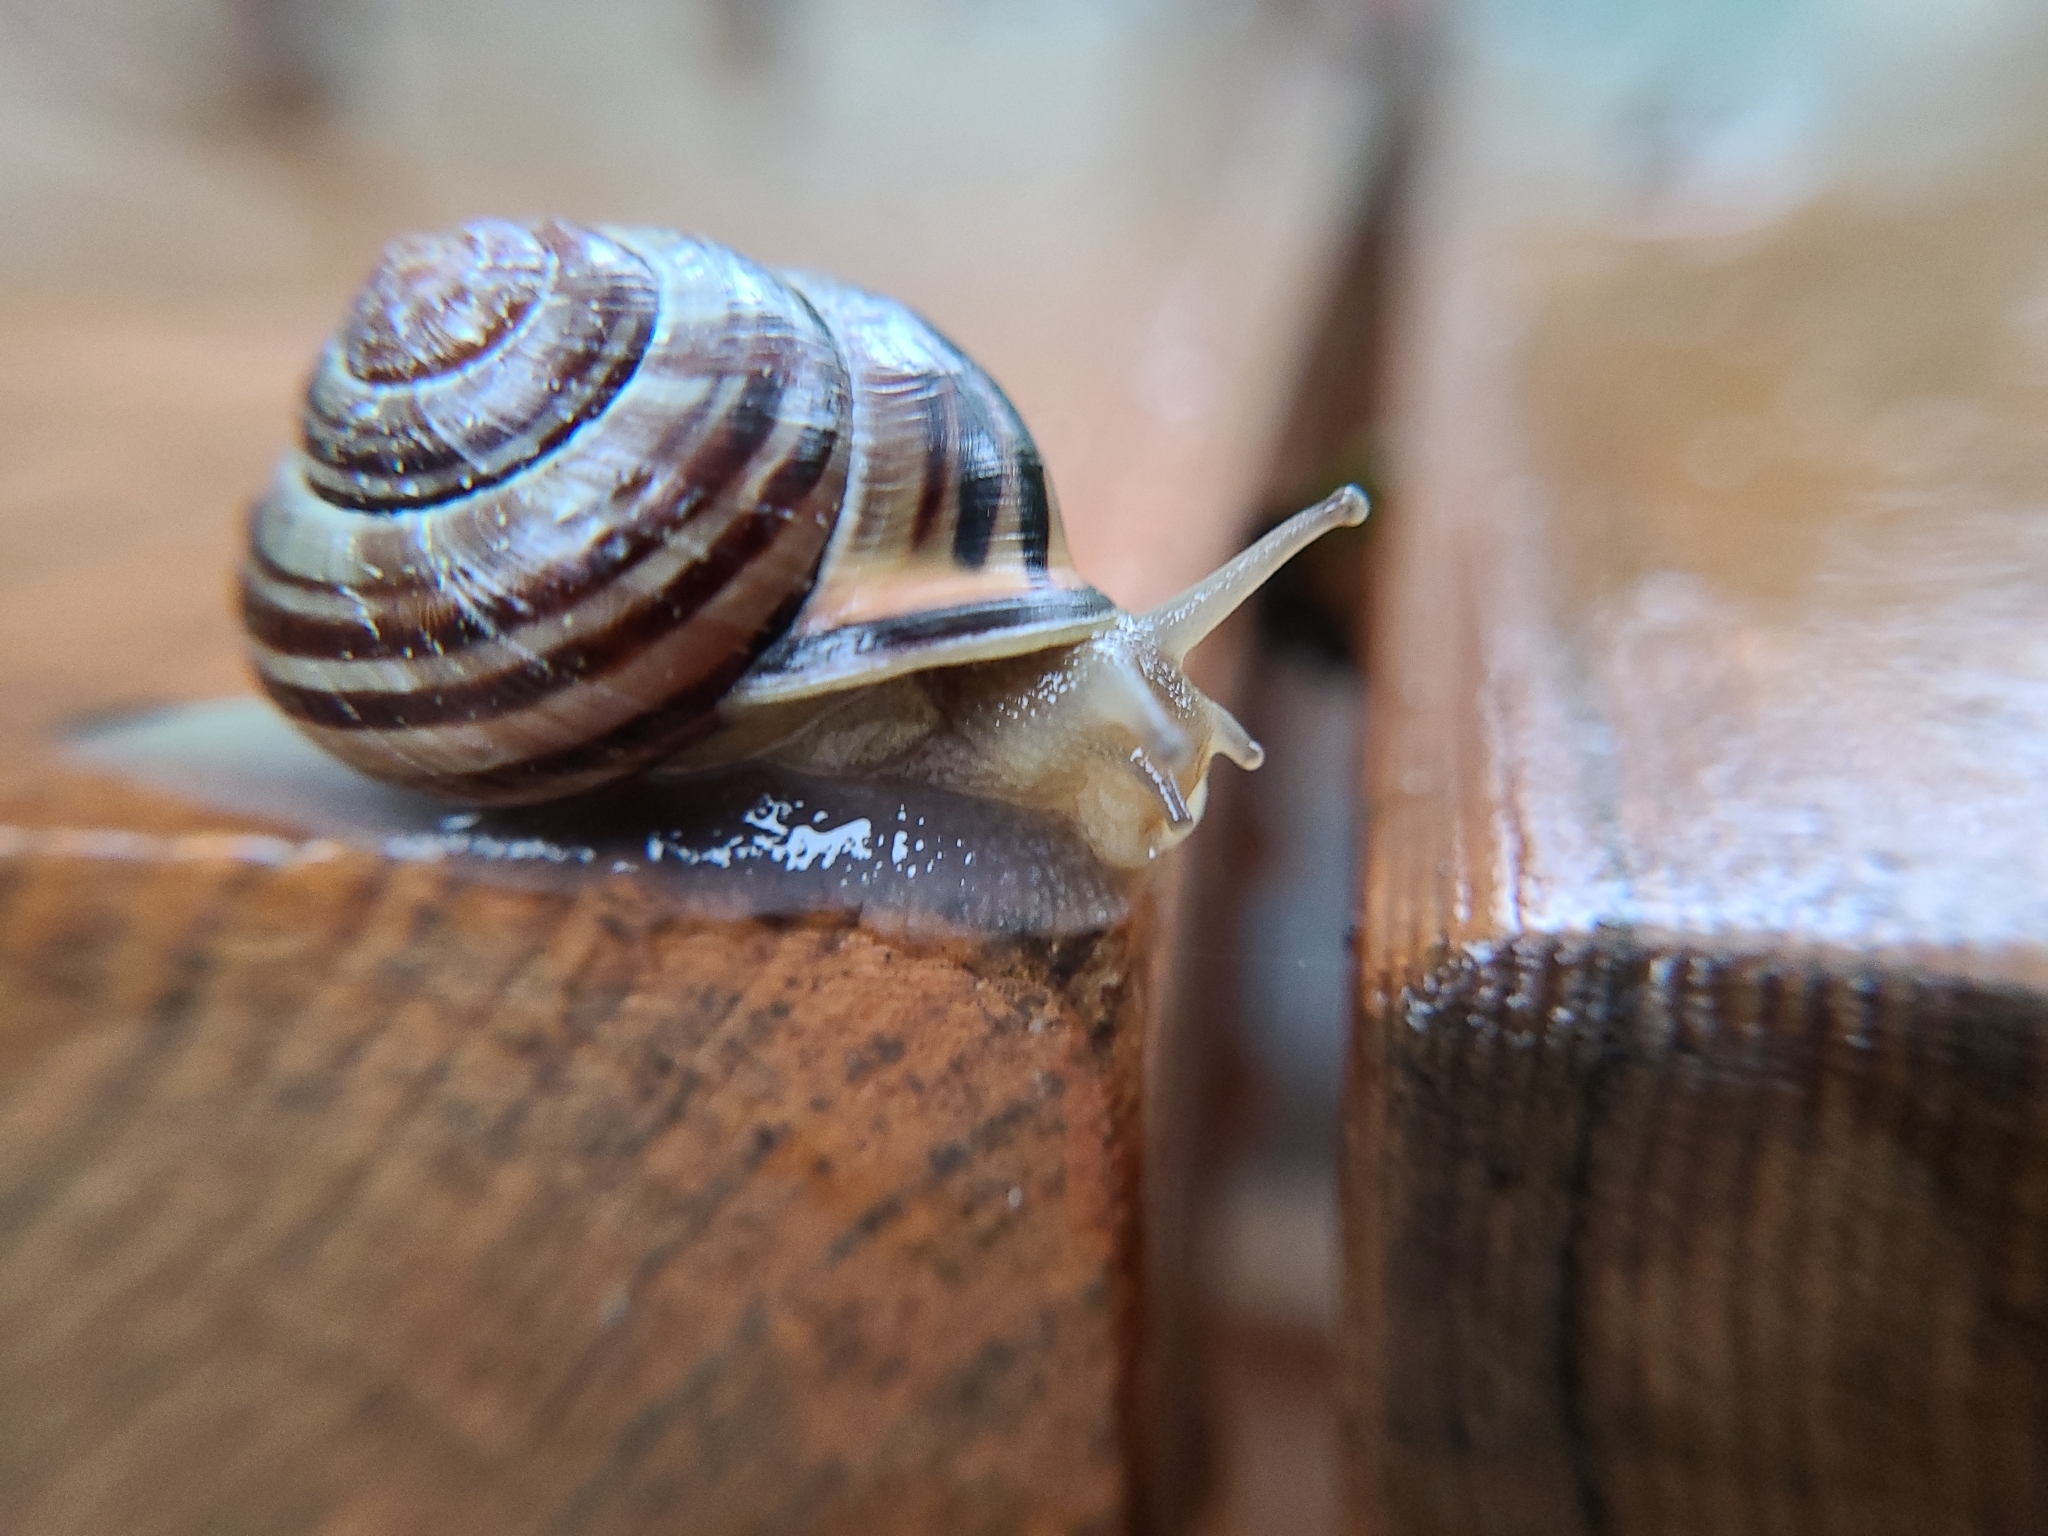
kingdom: Animalia
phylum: Mollusca
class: Gastropoda
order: Stylommatophora
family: Helicidae
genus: Cepaea
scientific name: Cepaea nemoralis
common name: Grovesnail
